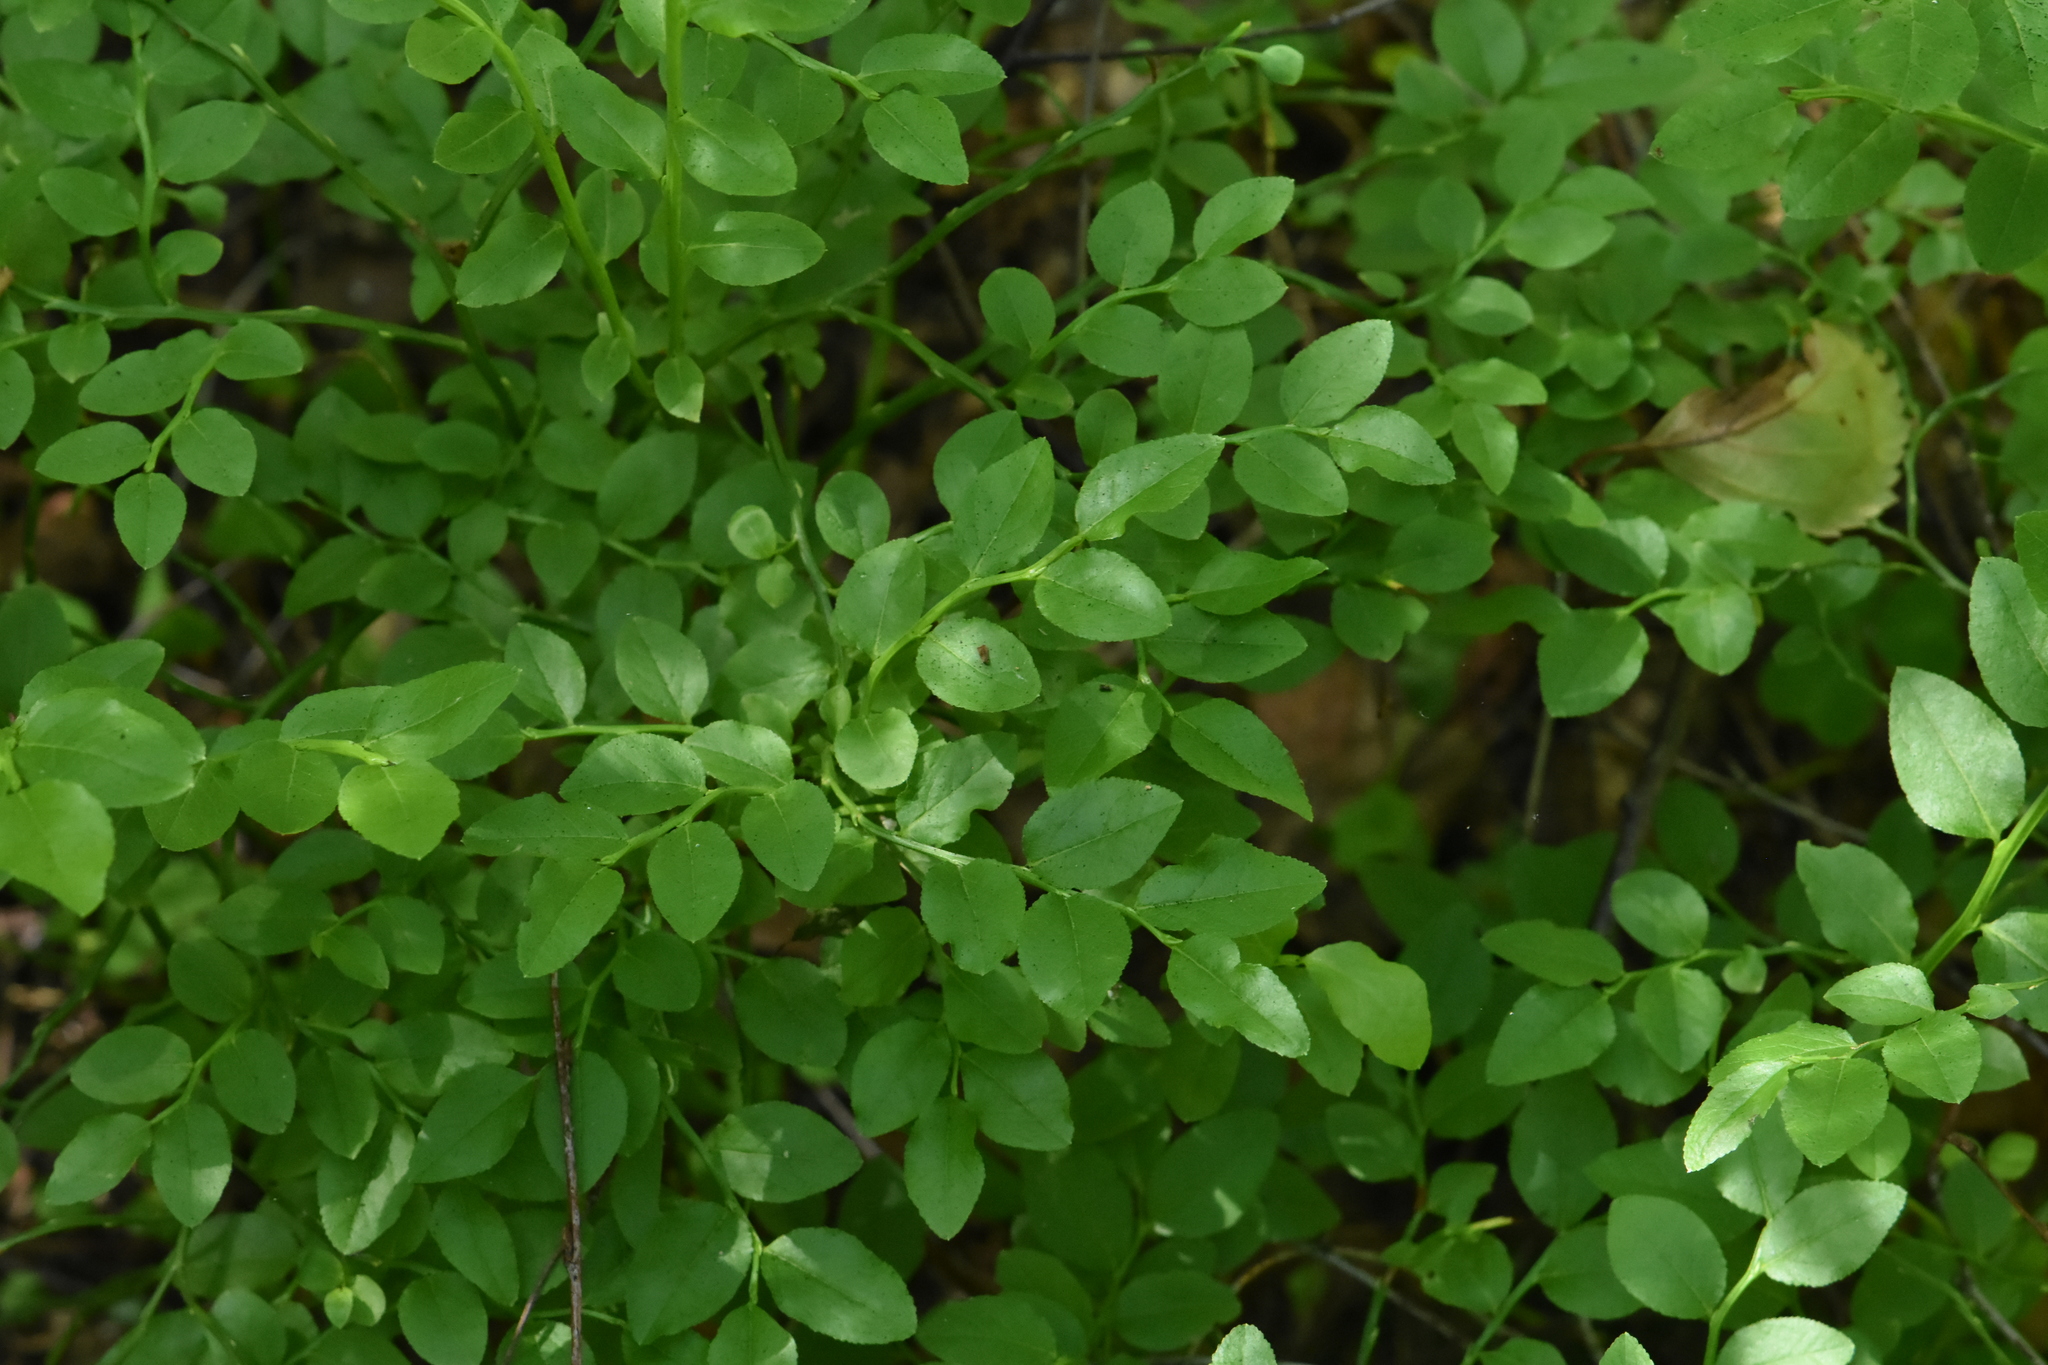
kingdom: Plantae
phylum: Tracheophyta
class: Magnoliopsida
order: Ericales
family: Ericaceae
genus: Vaccinium
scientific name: Vaccinium myrtillus
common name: Bilberry
